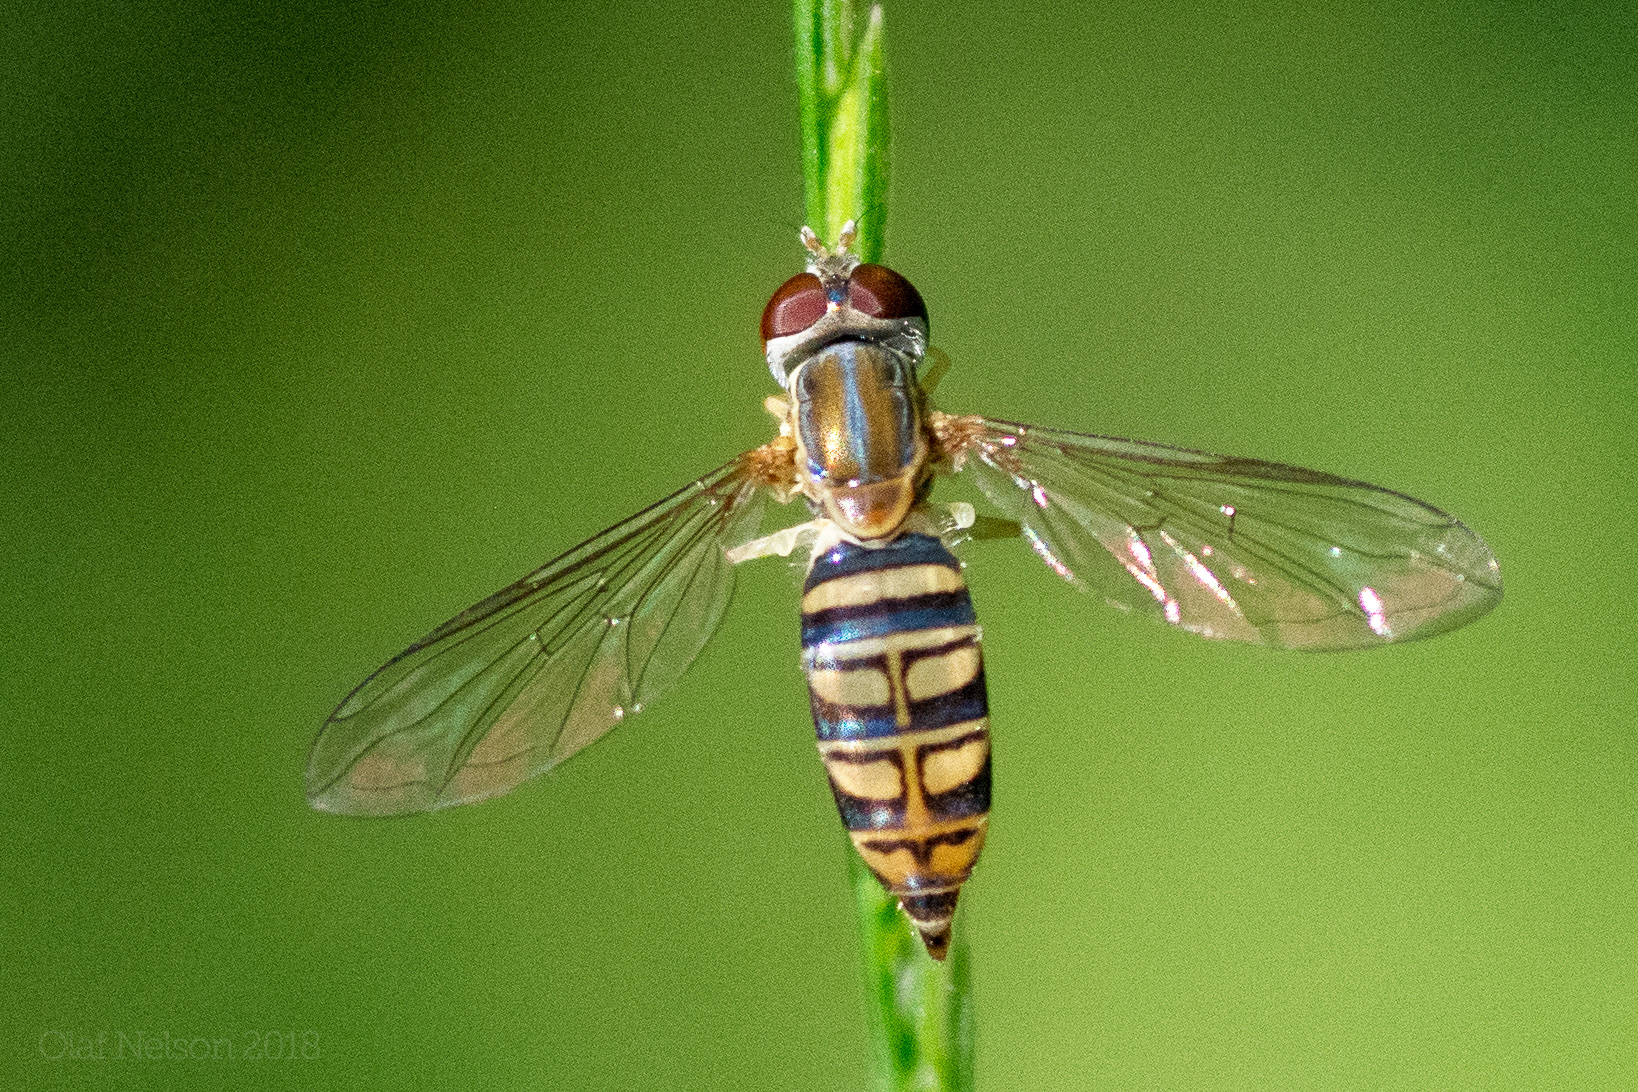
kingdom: Animalia
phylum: Arthropoda
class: Insecta
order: Diptera
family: Syrphidae
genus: Toxomerus
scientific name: Toxomerus politus
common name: Maize calligrapher
